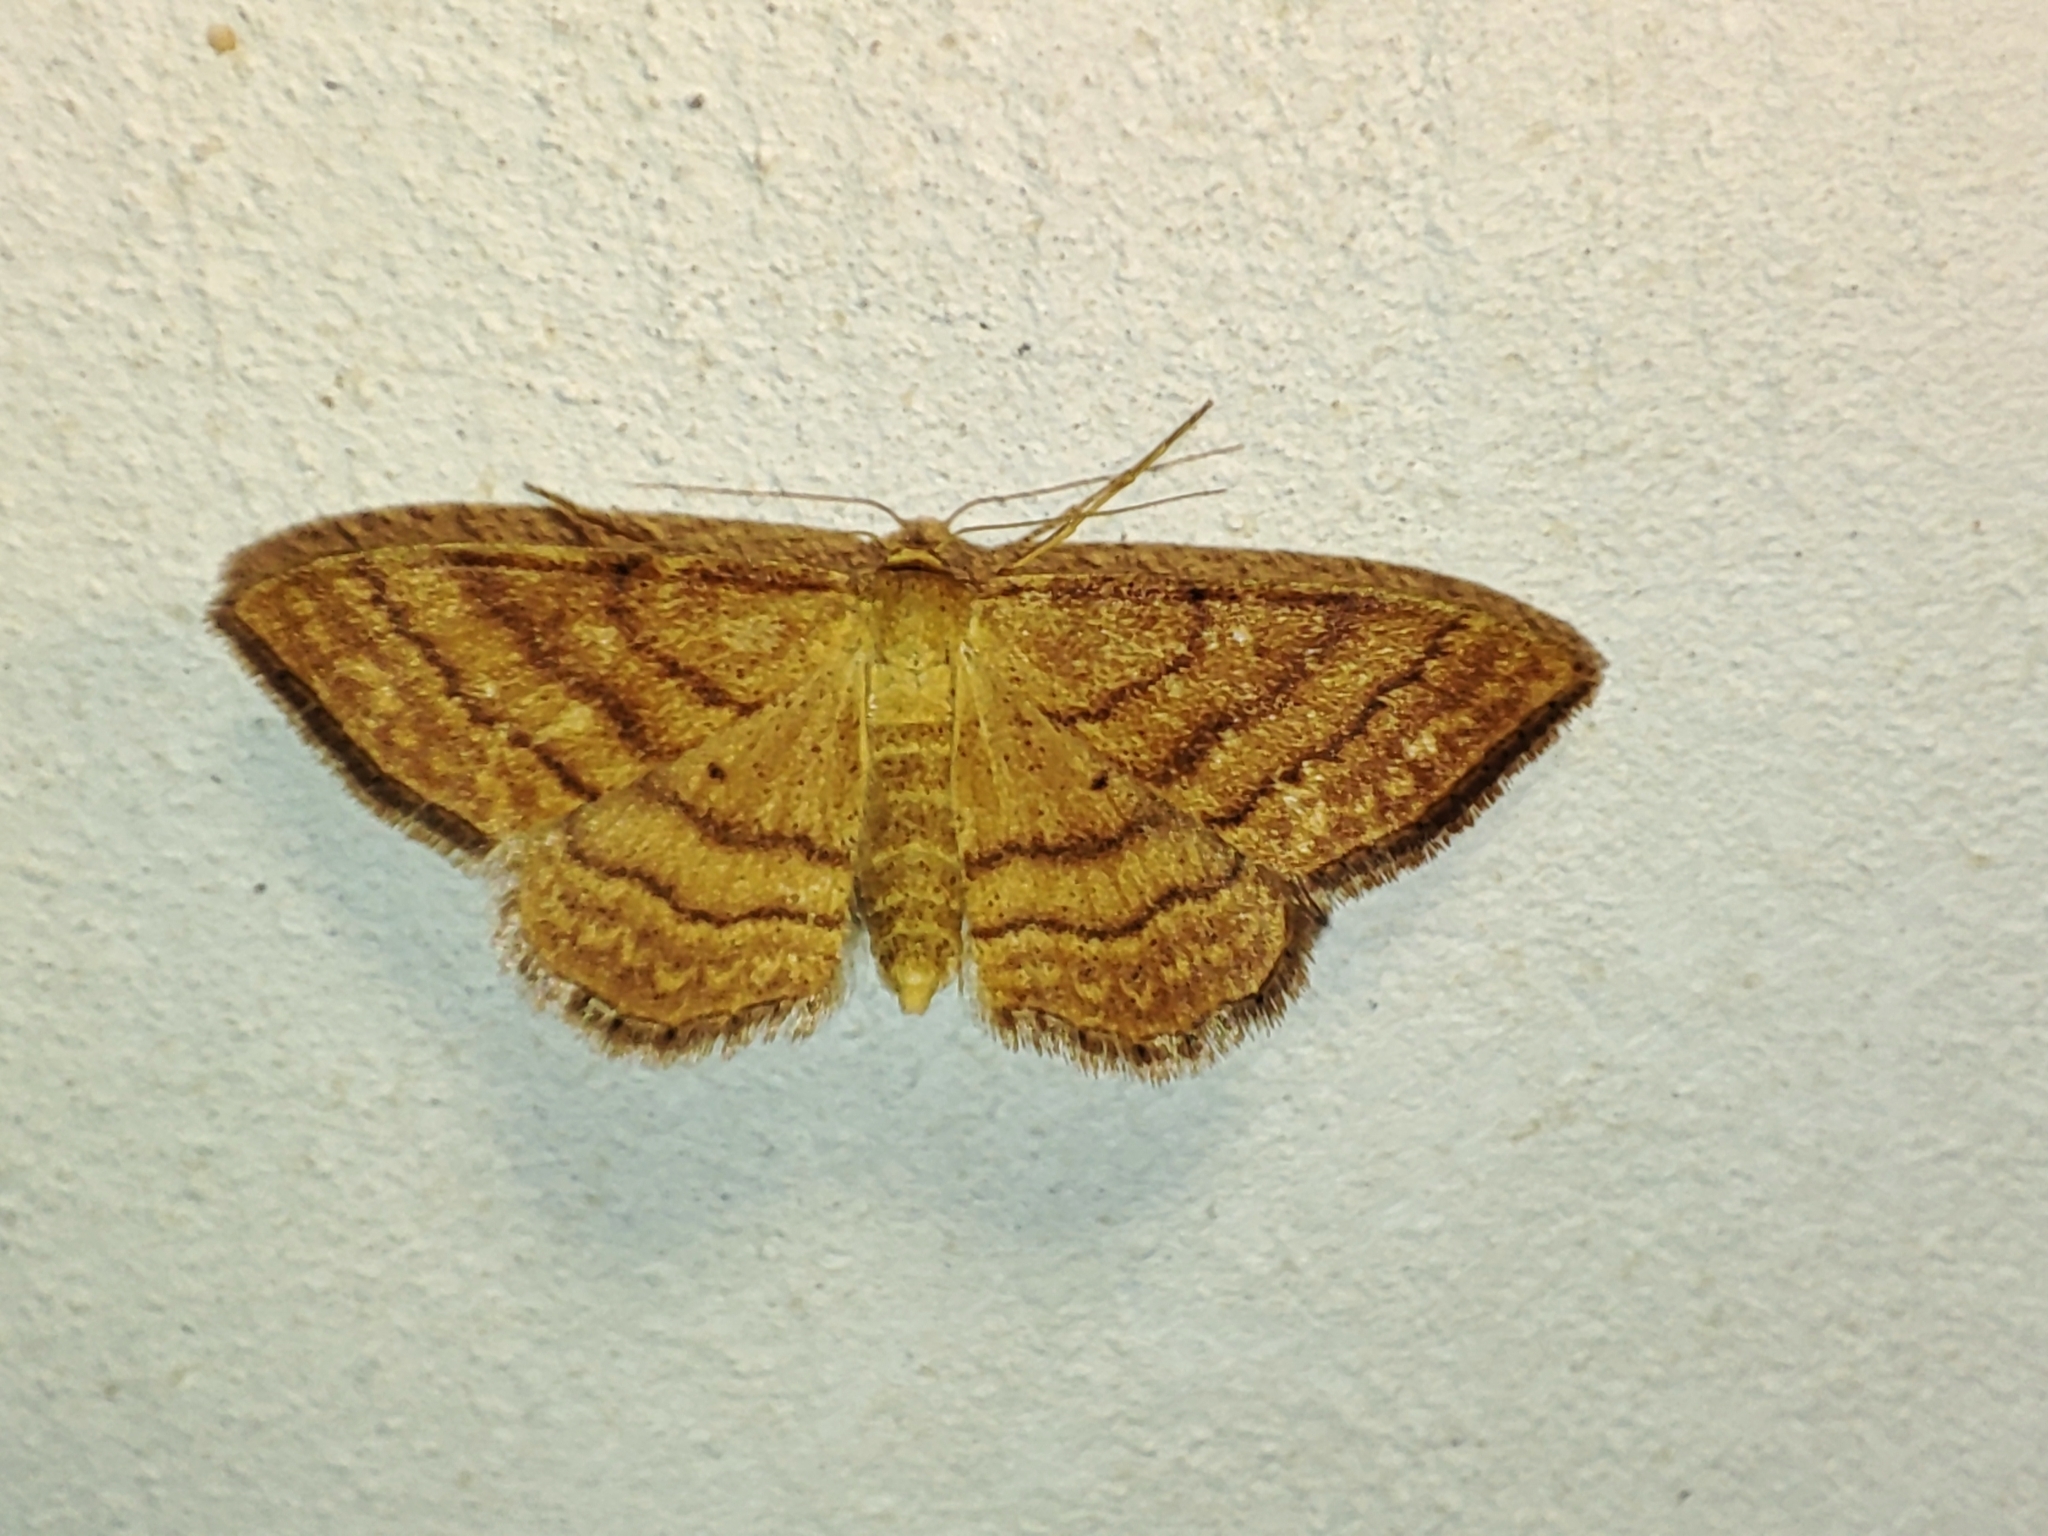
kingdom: Animalia
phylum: Arthropoda
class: Insecta
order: Lepidoptera
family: Geometridae
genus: Idaea
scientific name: Idaea ochrata
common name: Bright wave
